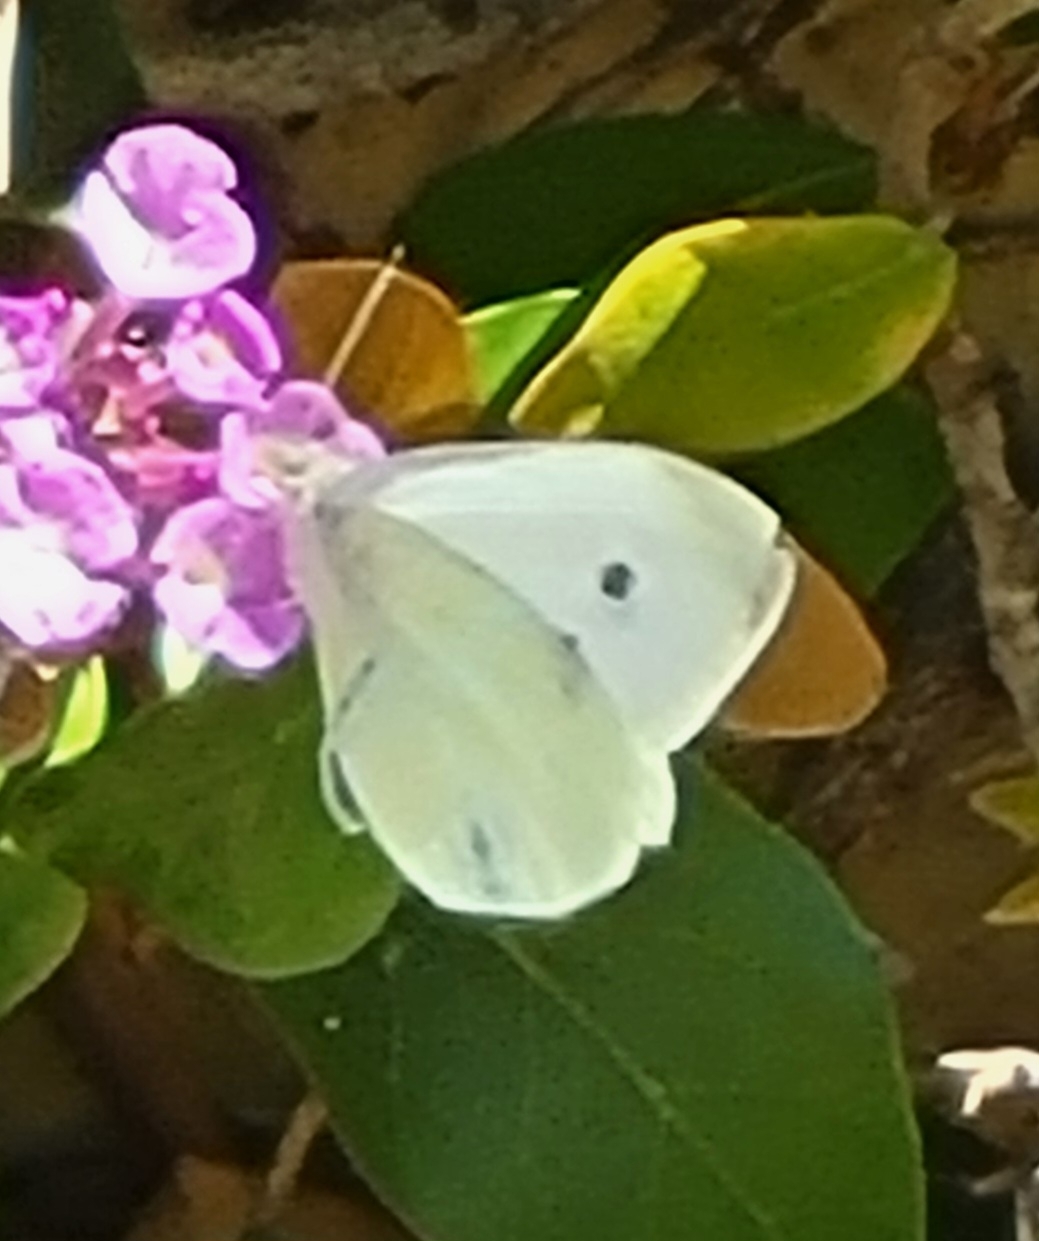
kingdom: Animalia
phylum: Arthropoda
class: Insecta
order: Lepidoptera
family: Pieridae
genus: Pieris
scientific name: Pieris rapae
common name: Small white
